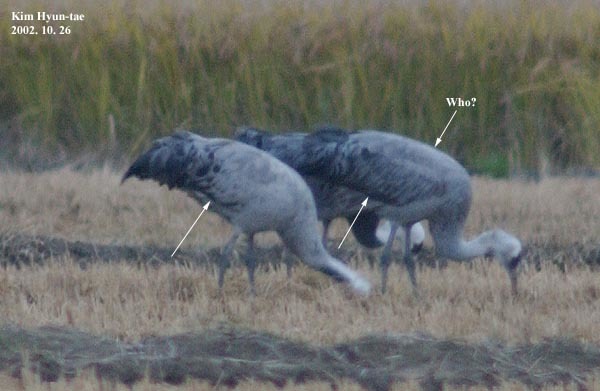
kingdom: Animalia
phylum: Chordata
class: Aves
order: Gruiformes
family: Gruidae
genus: Grus
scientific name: Grus monacha
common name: Hooded crane
